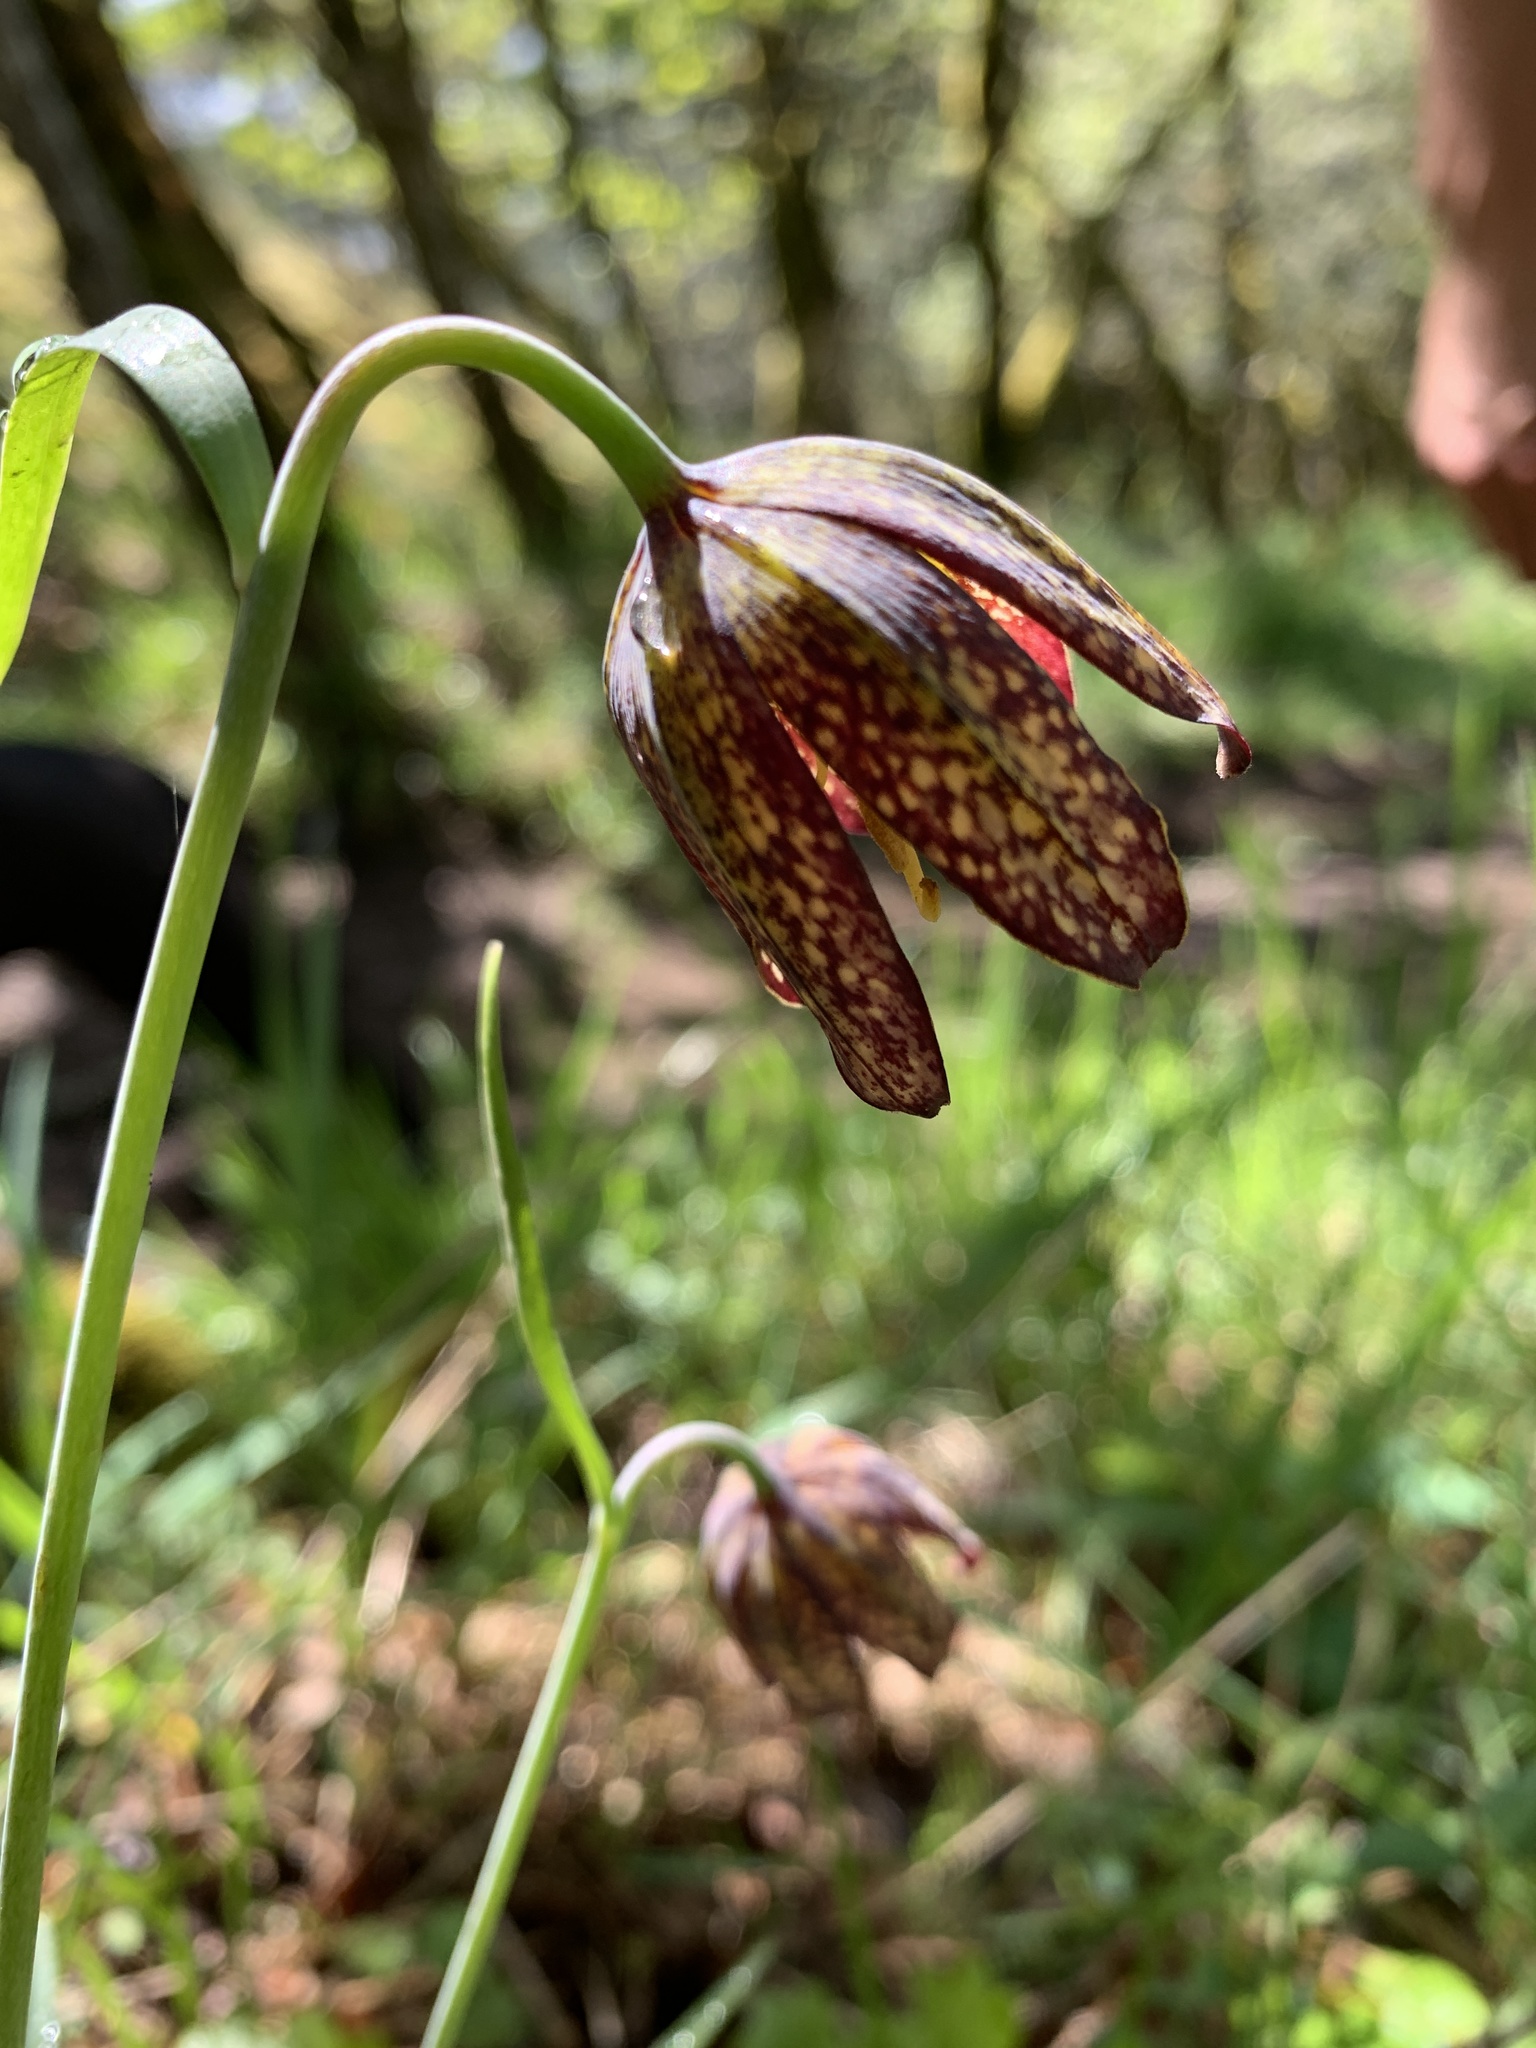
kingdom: Plantae
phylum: Tracheophyta
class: Liliopsida
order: Liliales
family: Liliaceae
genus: Fritillaria
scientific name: Fritillaria affinis
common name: Ojai fritillary
